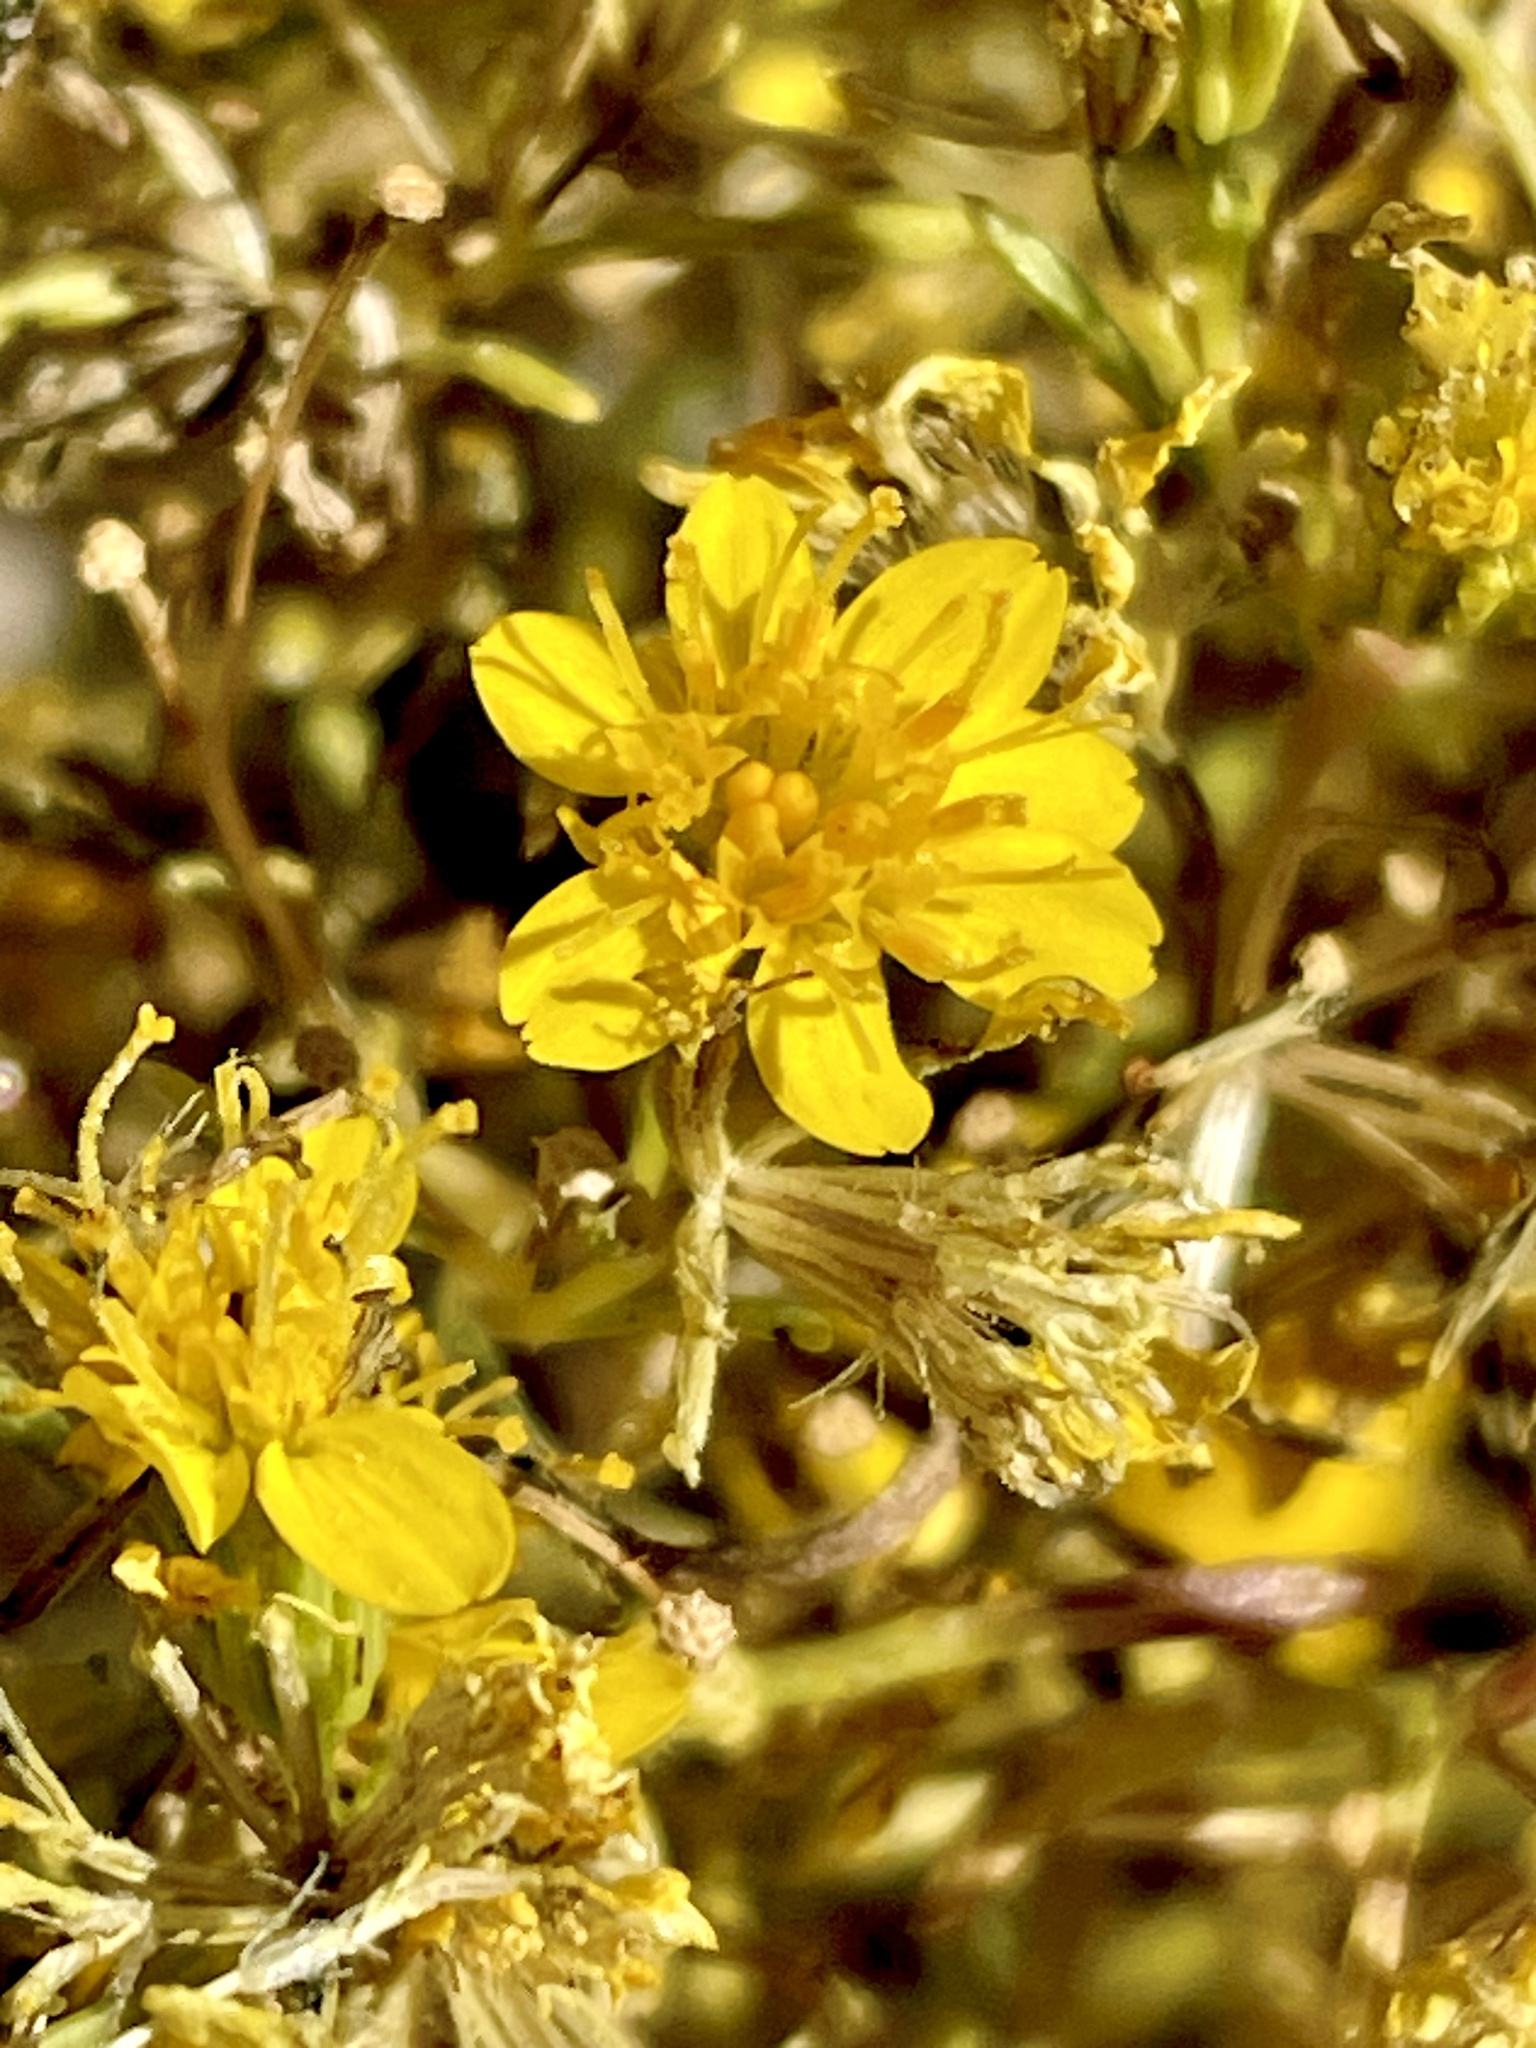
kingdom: Plantae
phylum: Tracheophyta
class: Magnoliopsida
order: Asterales
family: Asteraceae
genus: Pectis
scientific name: Pectis papposa
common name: Many-bristle chinchweed
